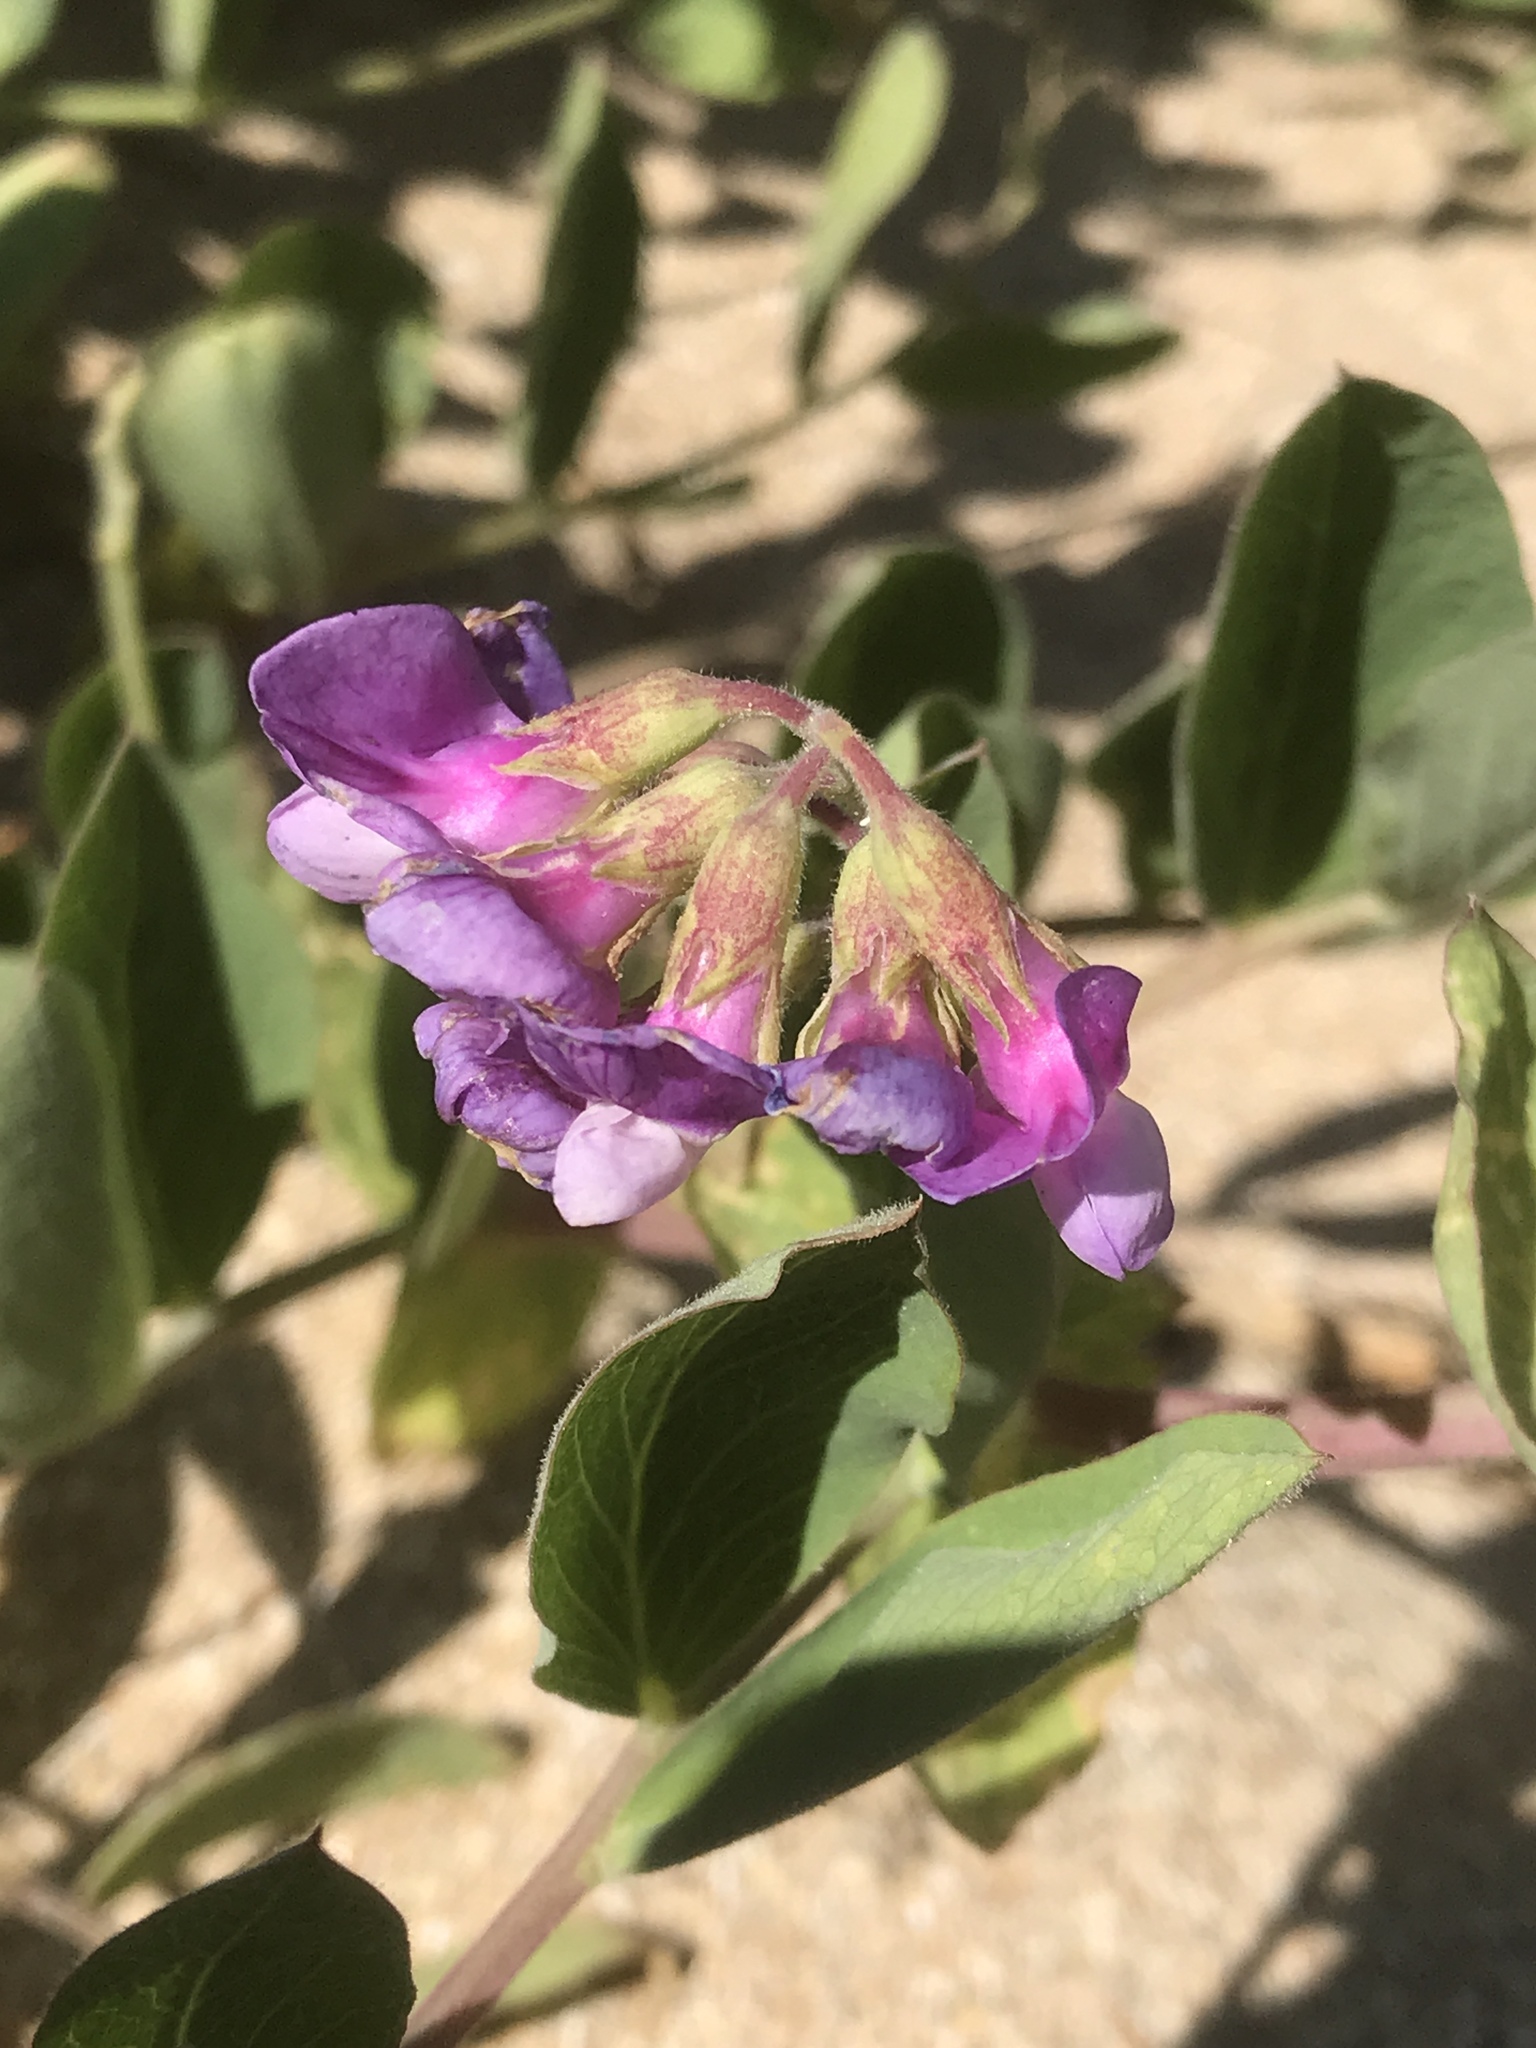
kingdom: Plantae
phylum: Tracheophyta
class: Magnoliopsida
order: Fabales
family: Fabaceae
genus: Lathyrus
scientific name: Lathyrus japonicus
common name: Sea pea
